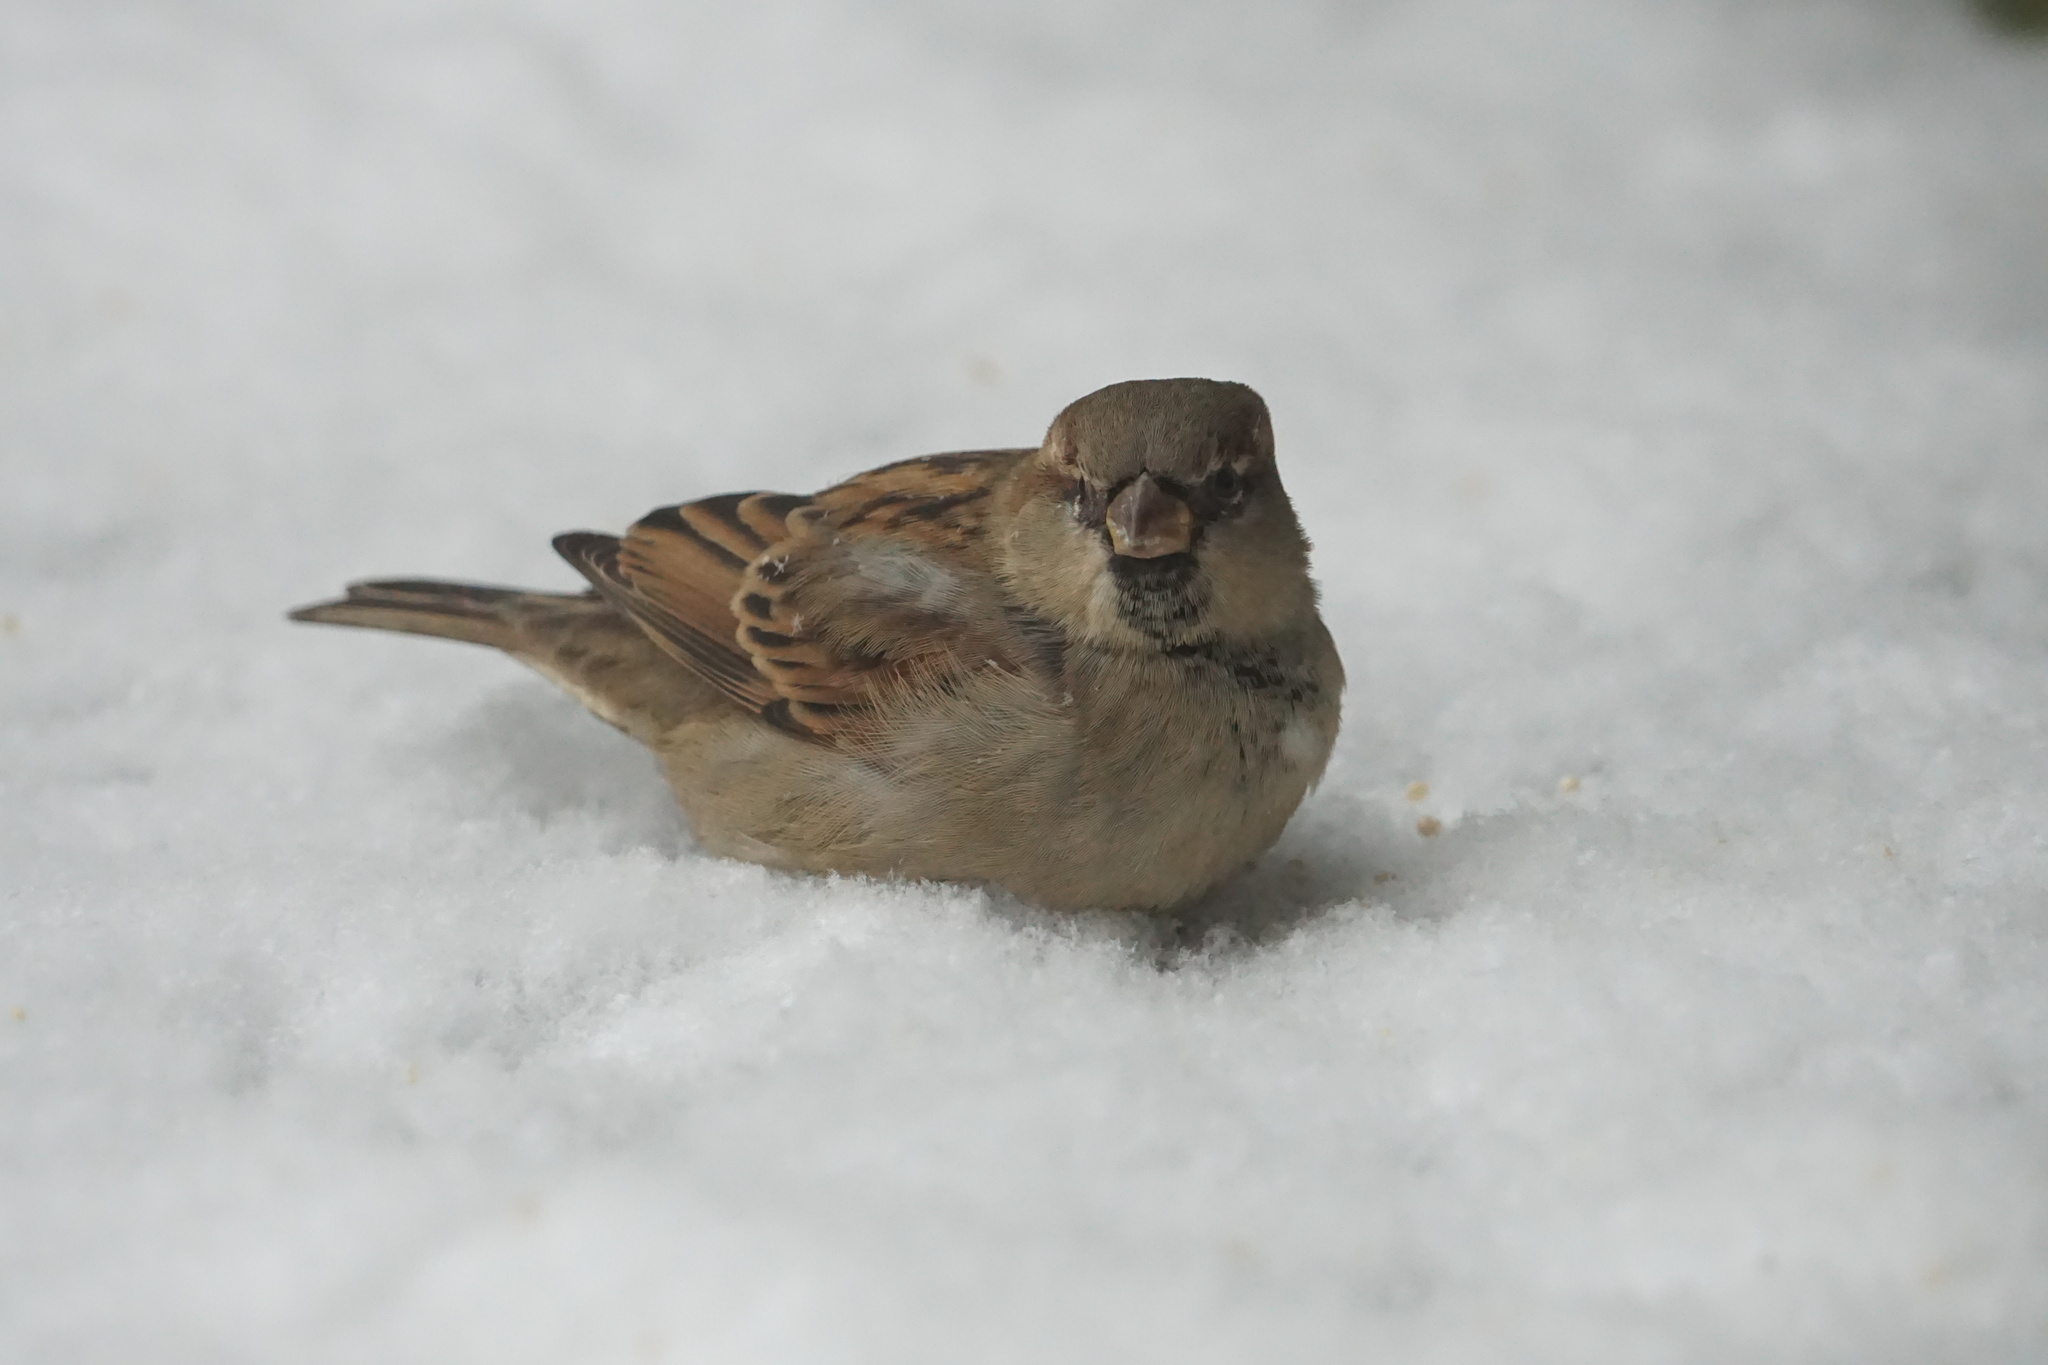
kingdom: Animalia
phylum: Chordata
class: Aves
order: Passeriformes
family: Passeridae
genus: Passer
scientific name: Passer domesticus
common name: House sparrow
